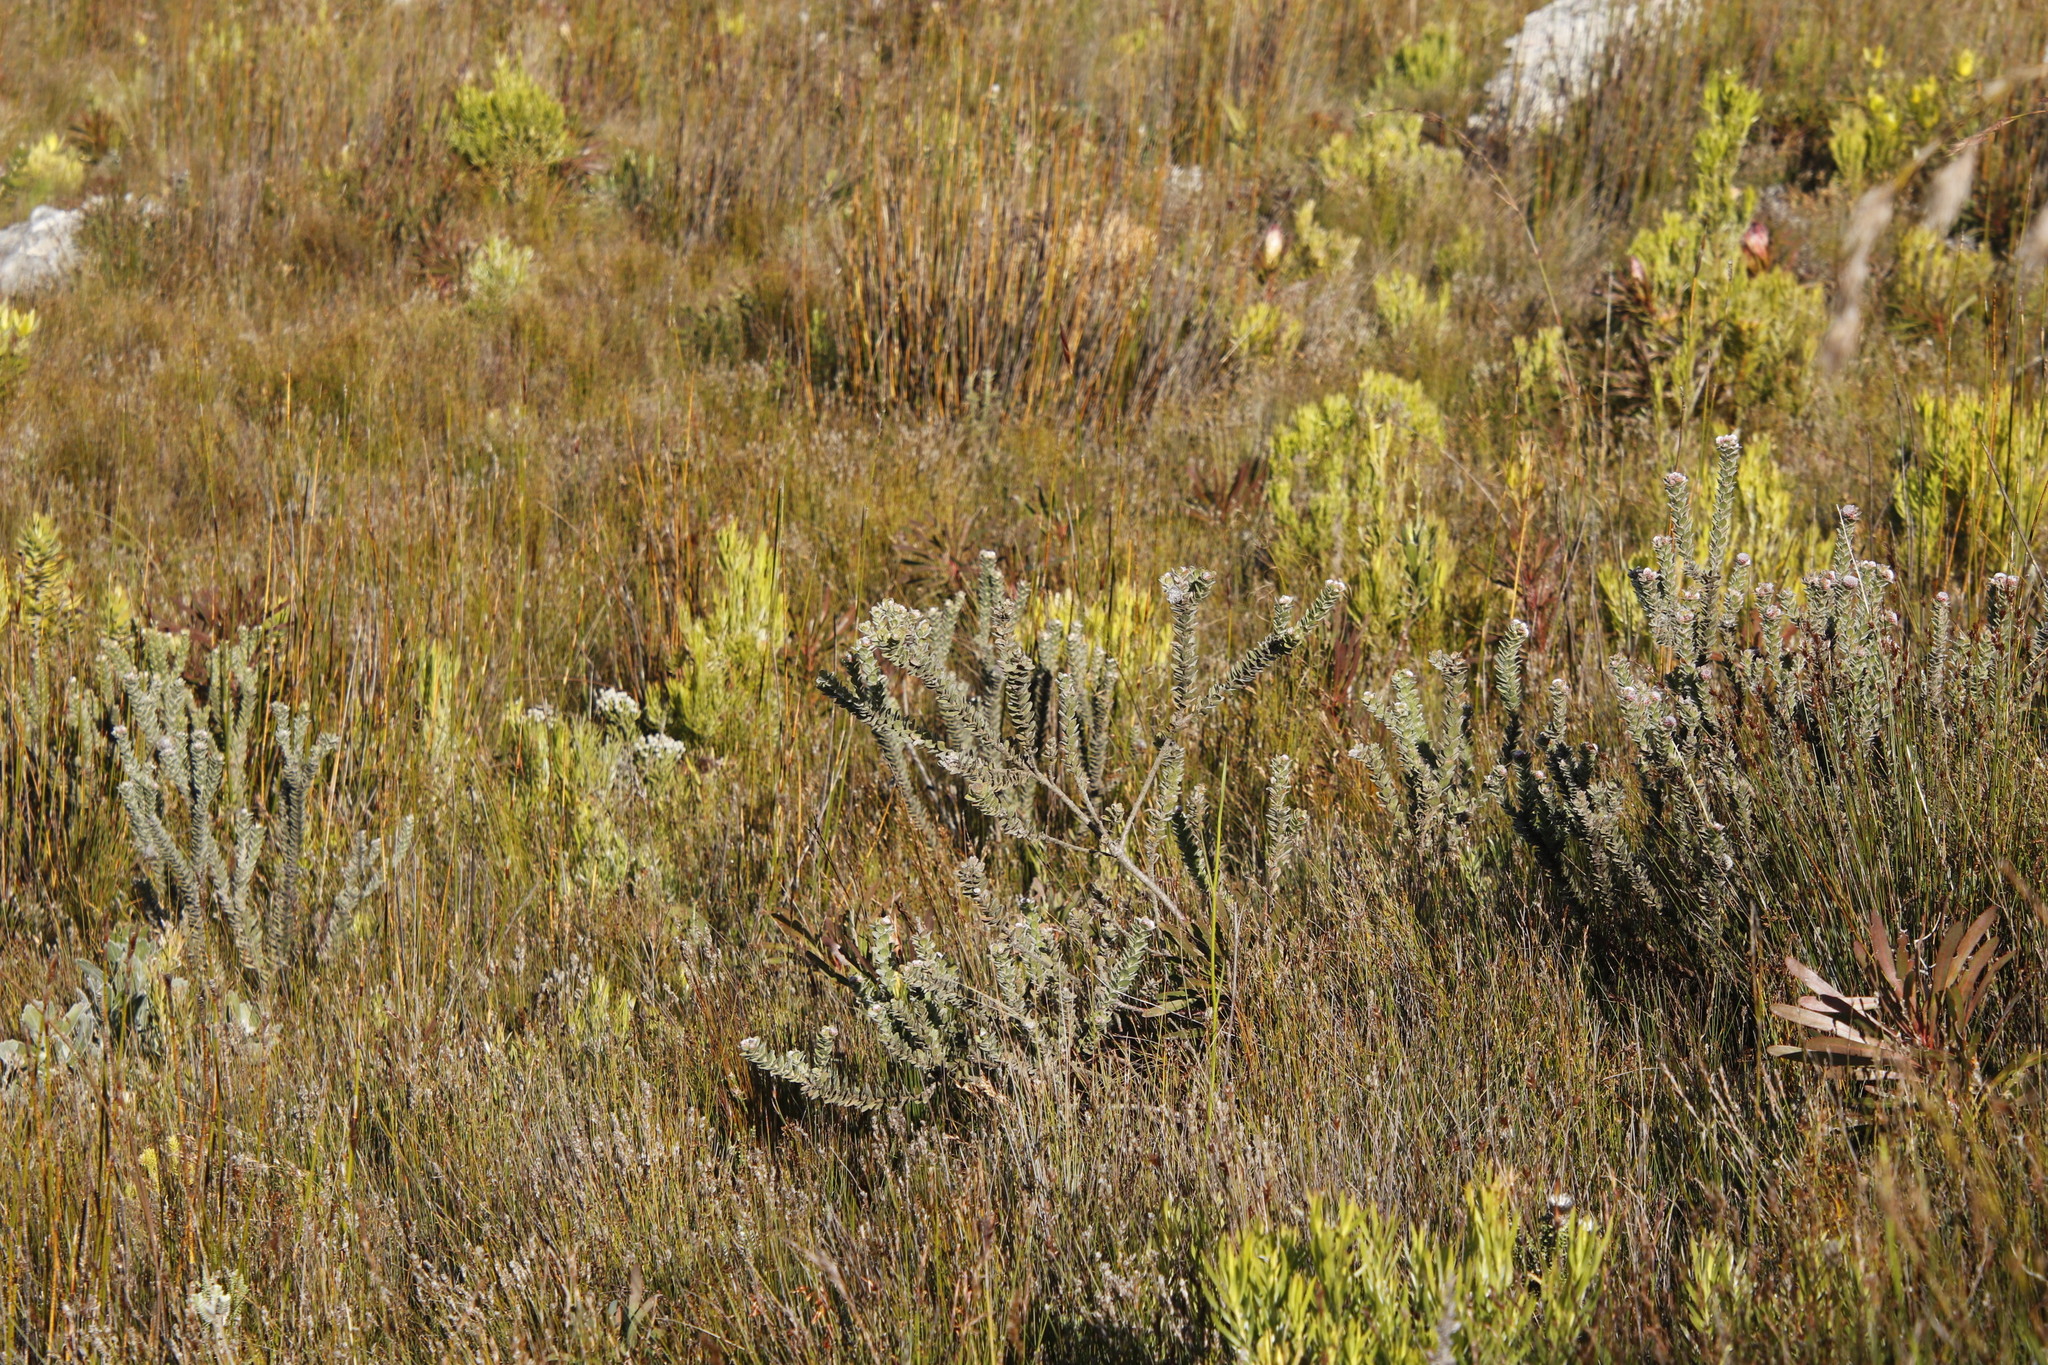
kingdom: Plantae
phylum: Tracheophyta
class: Magnoliopsida
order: Proteales
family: Proteaceae
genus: Leucospermum
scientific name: Leucospermum truncatulum
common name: Oval-leaf pincushion
